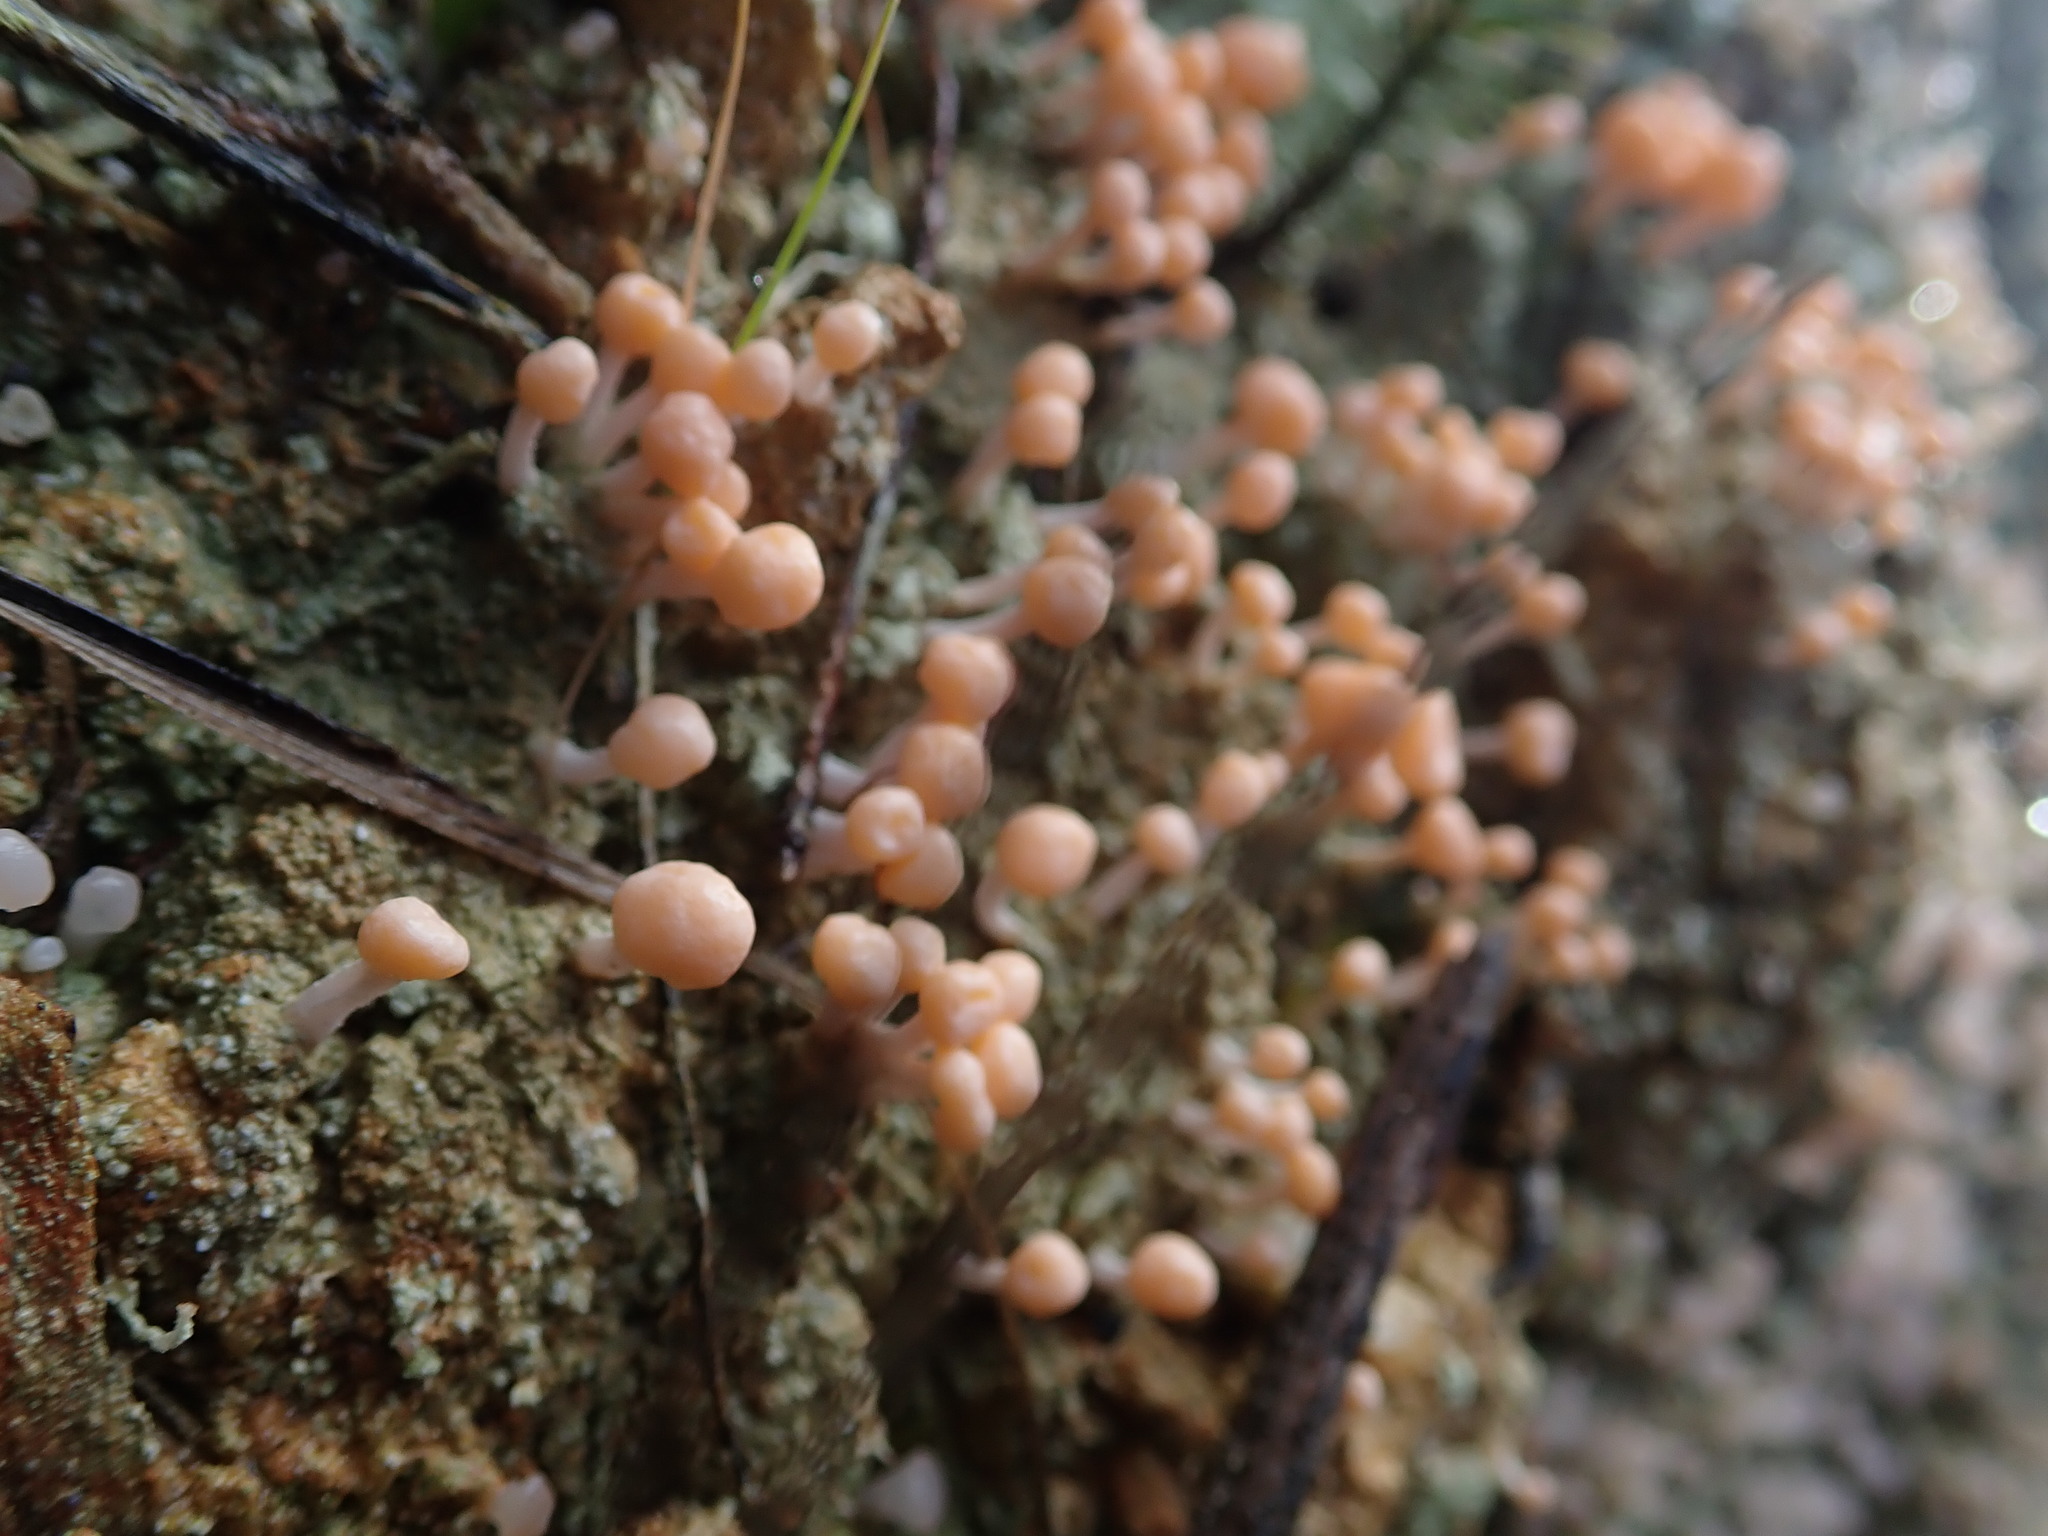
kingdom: Fungi
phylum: Ascomycota
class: Lecanoromycetes
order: Pertusariales
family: Icmadophilaceae
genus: Dibaeis
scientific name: Dibaeis arcuata
